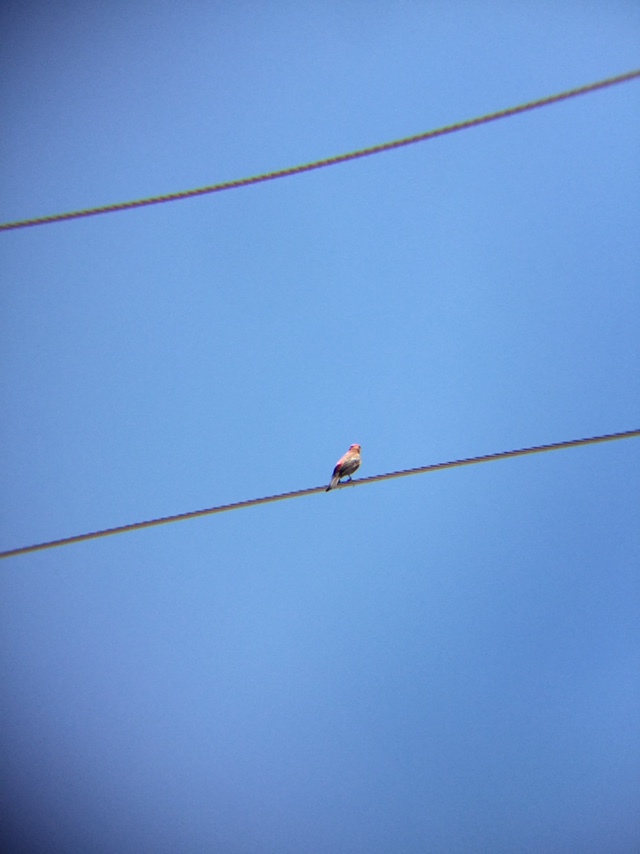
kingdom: Animalia
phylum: Chordata
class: Aves
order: Passeriformes
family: Fringillidae
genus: Haemorhous
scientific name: Haemorhous mexicanus
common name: House finch
